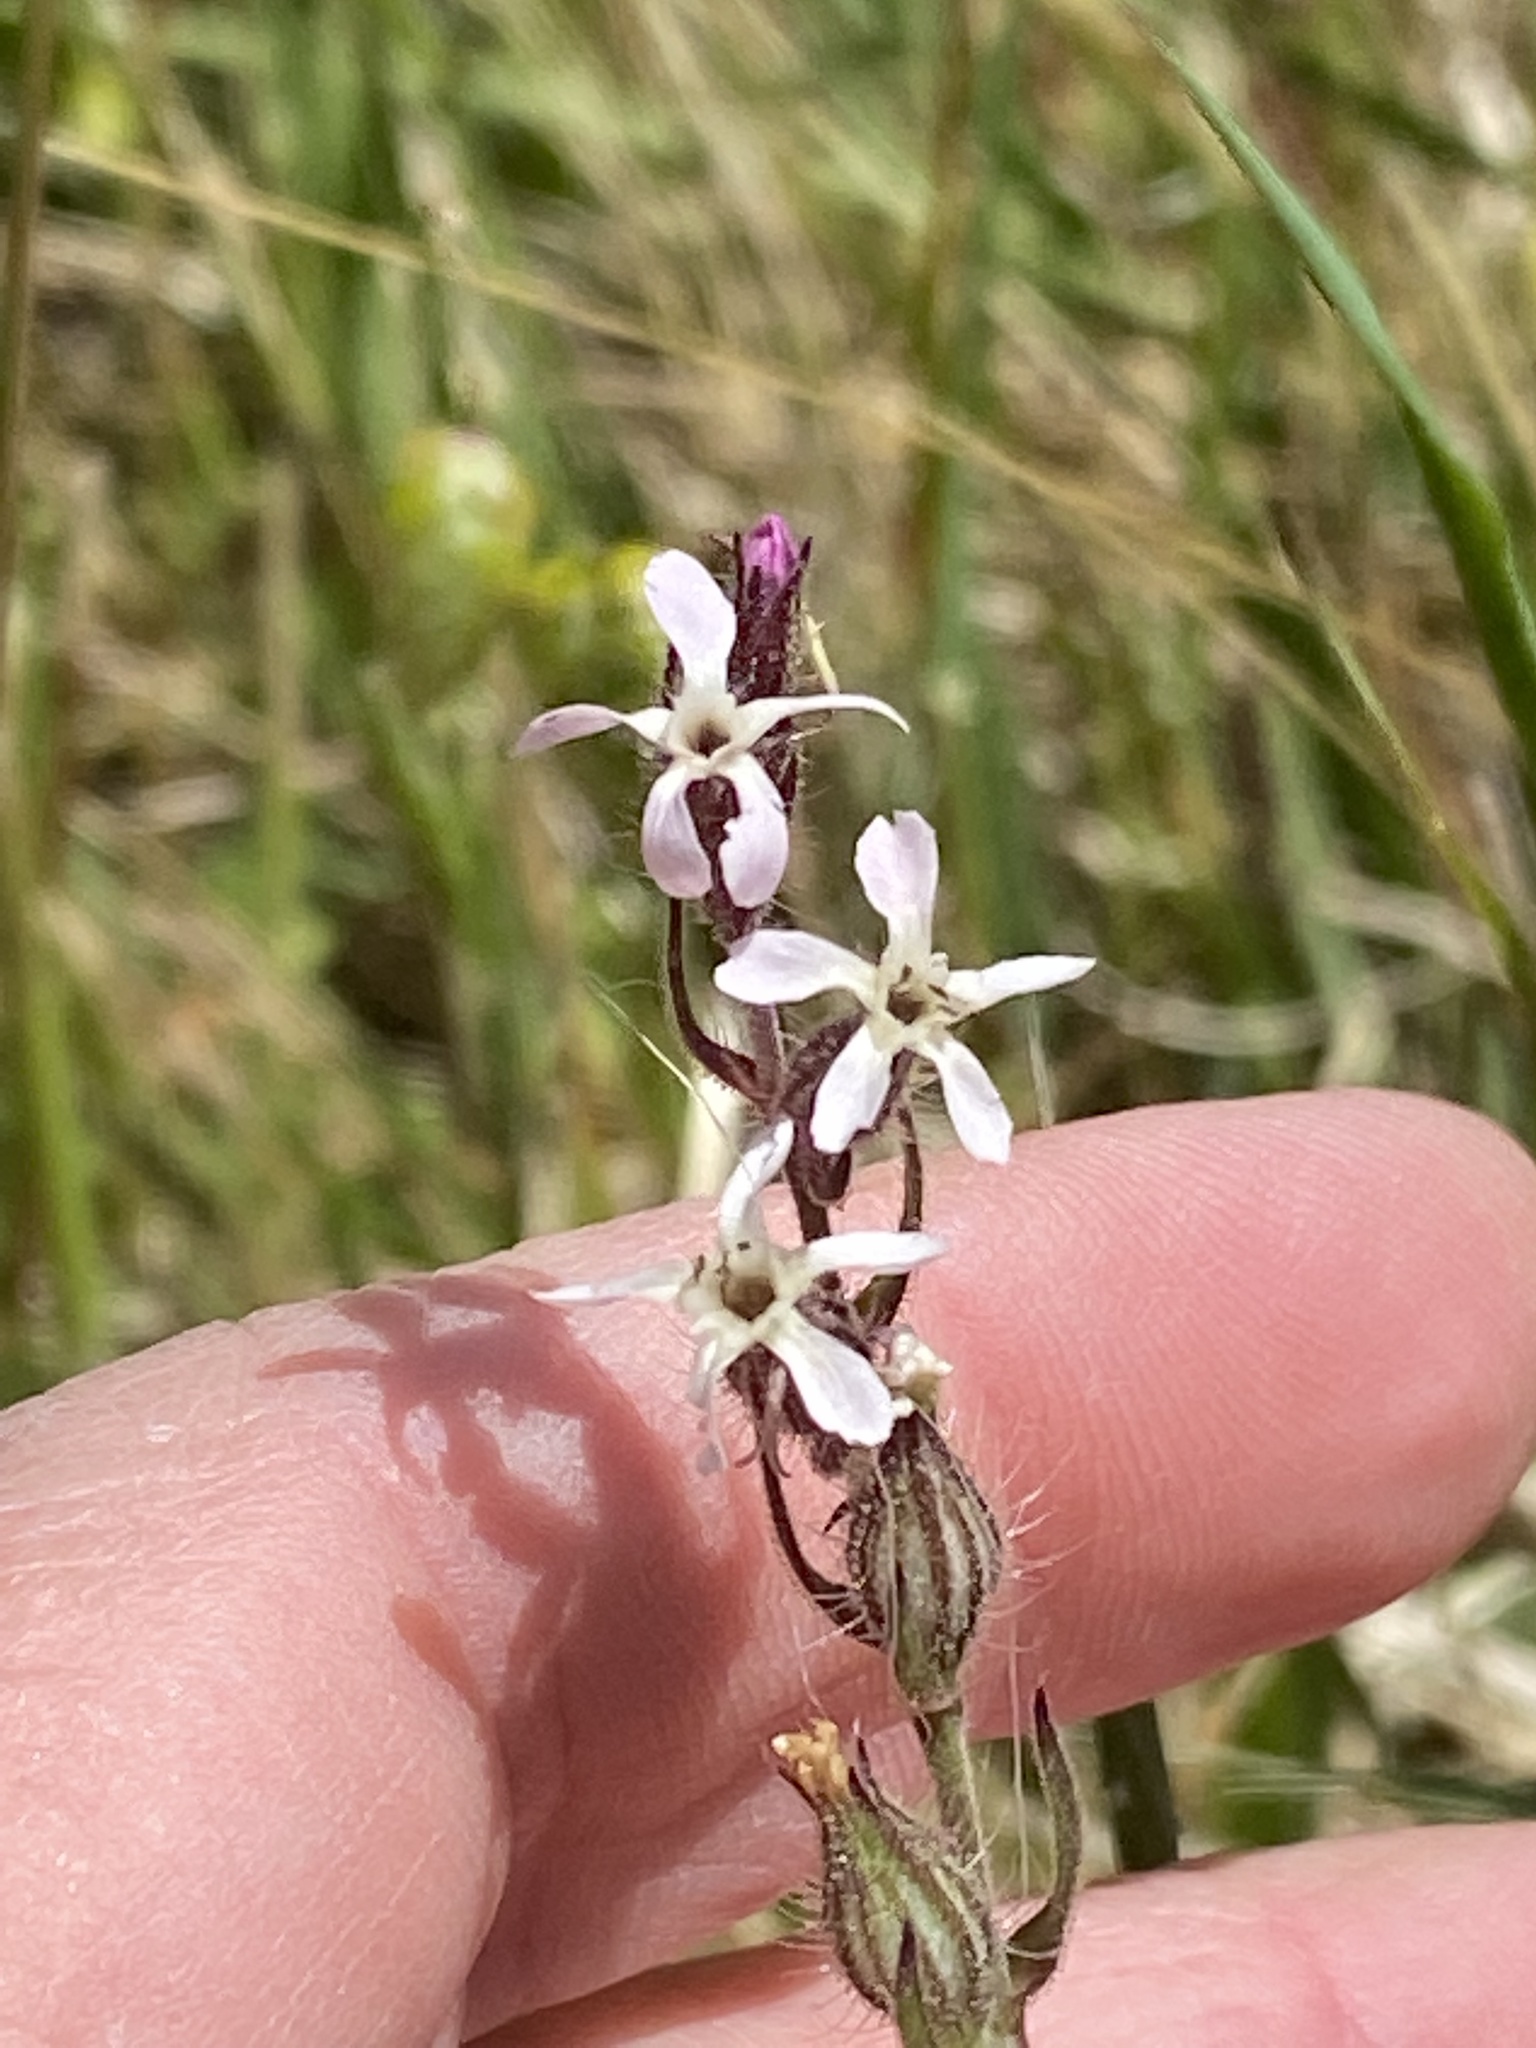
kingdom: Plantae
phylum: Tracheophyta
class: Magnoliopsida
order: Caryophyllales
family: Caryophyllaceae
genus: Silene
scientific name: Silene gallica
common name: Small-flowered catchfly
